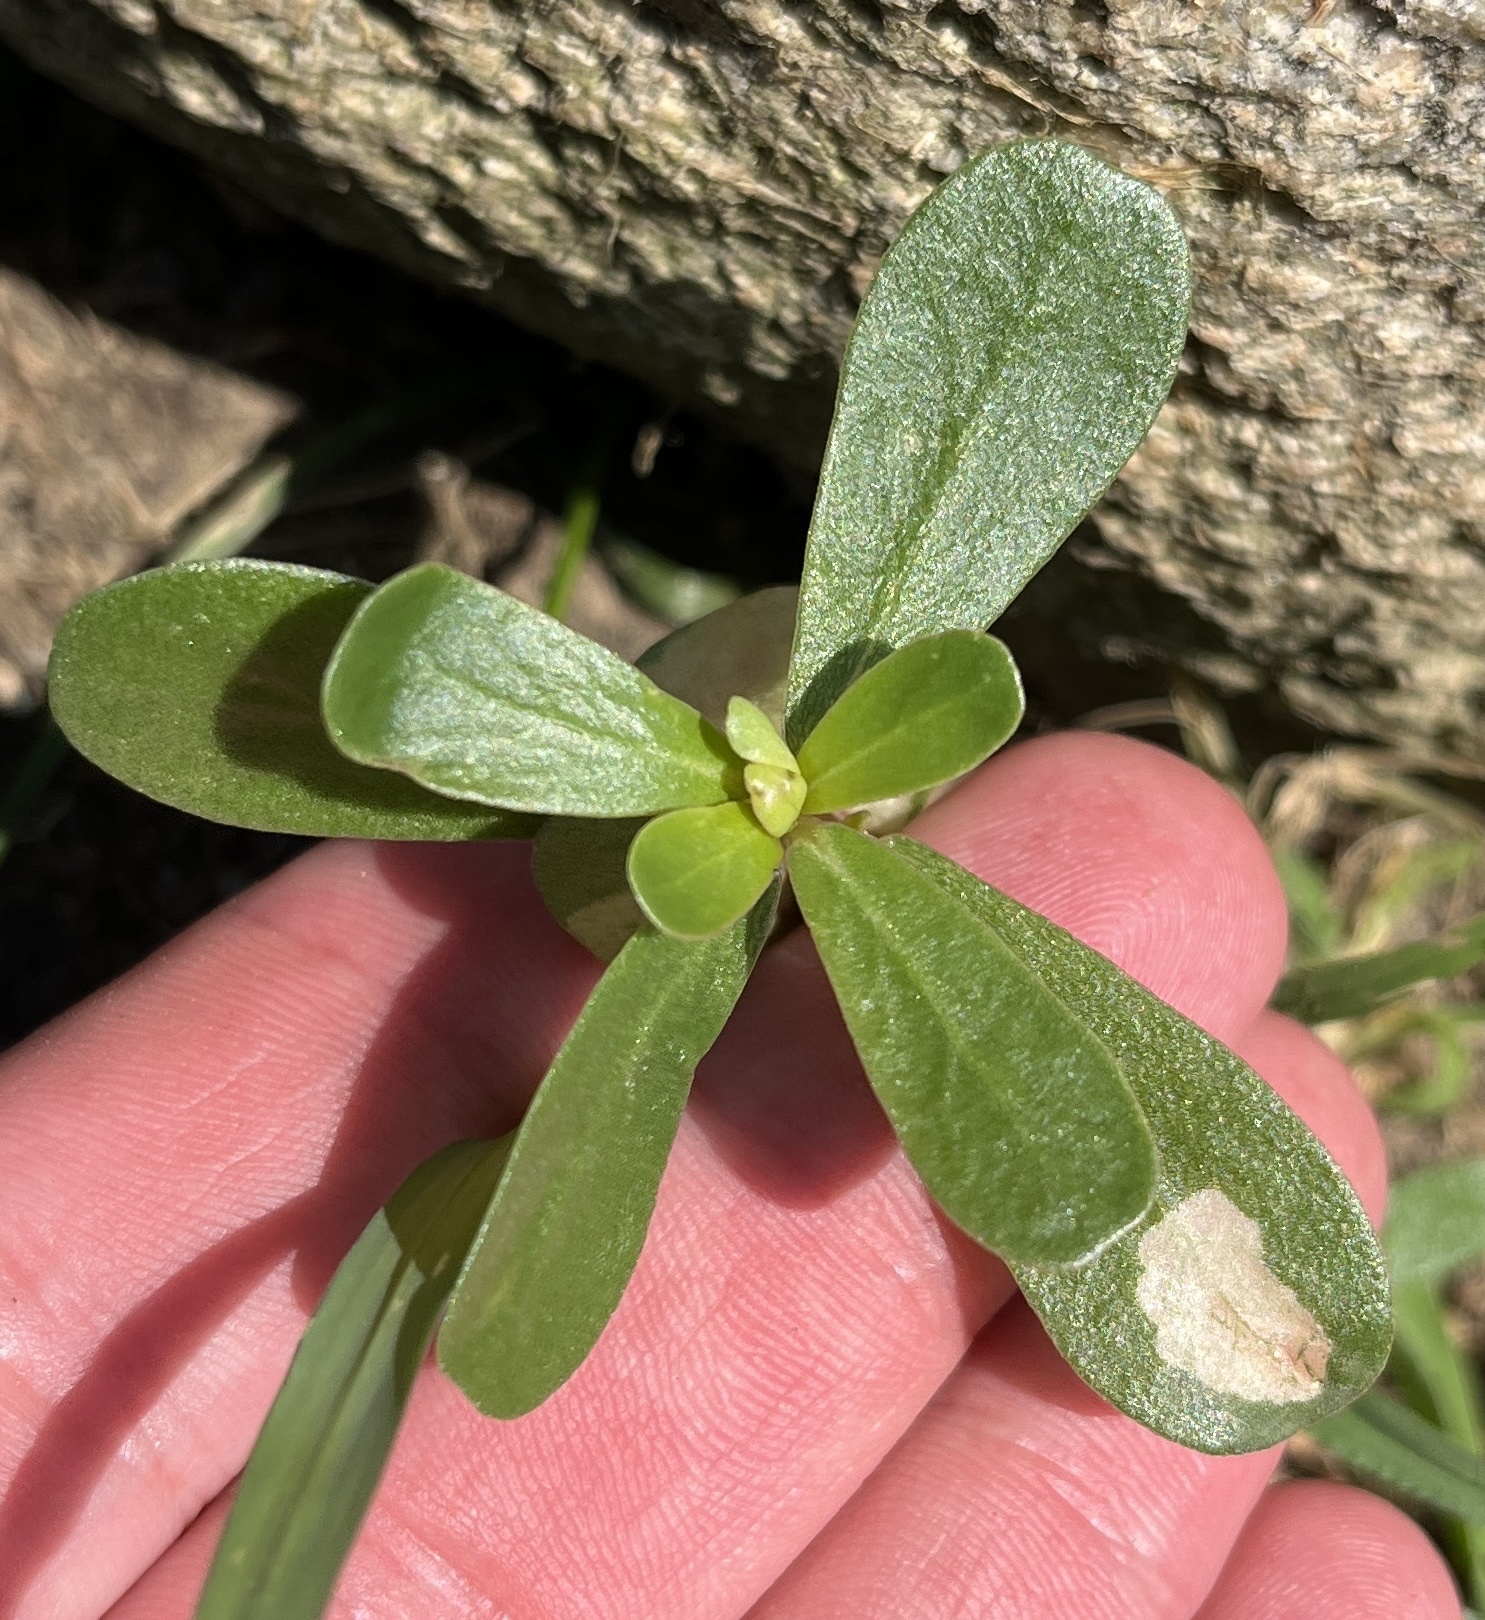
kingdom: Plantae
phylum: Tracheophyta
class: Magnoliopsida
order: Caryophyllales
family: Portulacaceae
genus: Portulaca
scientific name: Portulaca oleracea
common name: Common purslane
